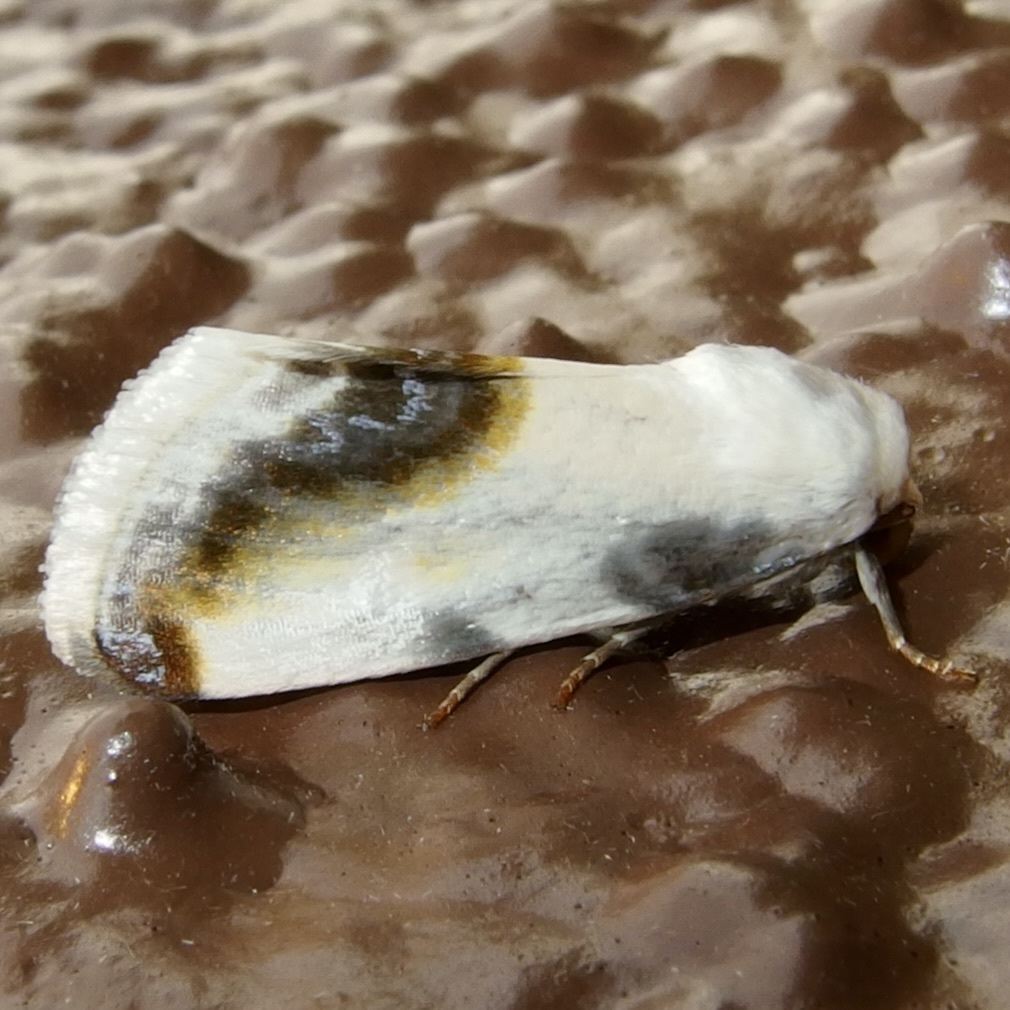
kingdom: Animalia
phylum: Arthropoda
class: Insecta
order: Lepidoptera
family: Noctuidae
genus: Acontia
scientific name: Acontia chea
